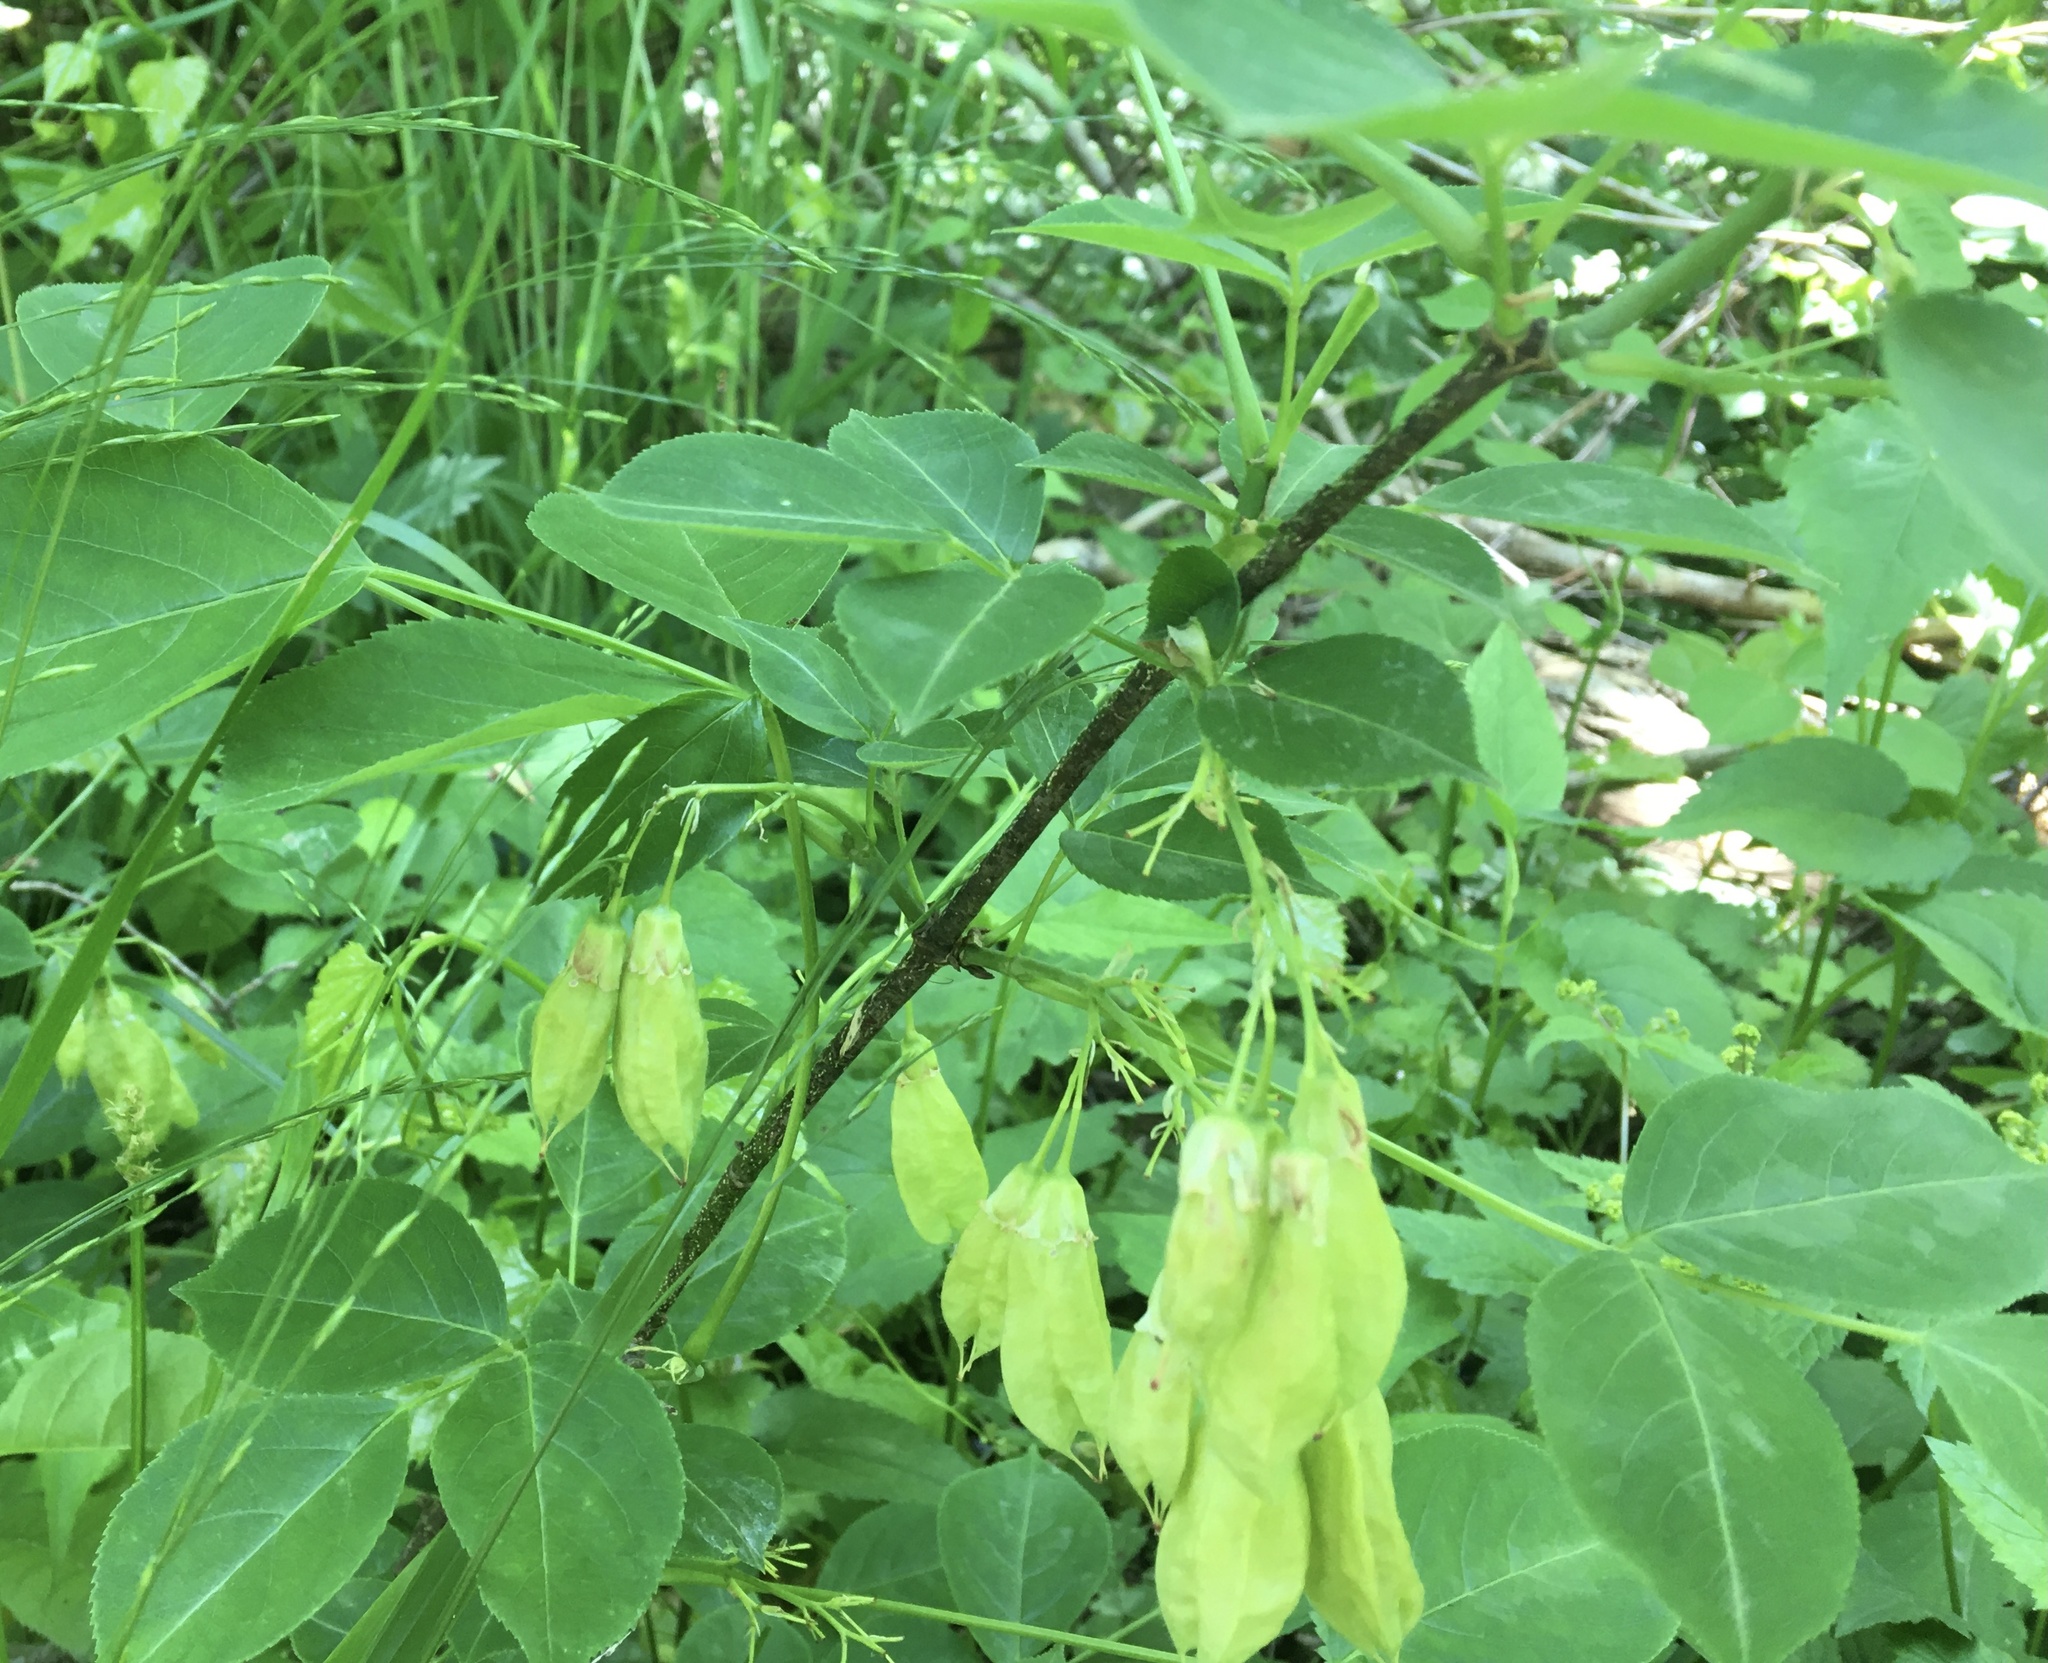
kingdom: Plantae
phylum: Tracheophyta
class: Magnoliopsida
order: Crossosomatales
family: Staphyleaceae
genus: Staphylea
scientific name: Staphylea trifolia
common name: American bladdernut
